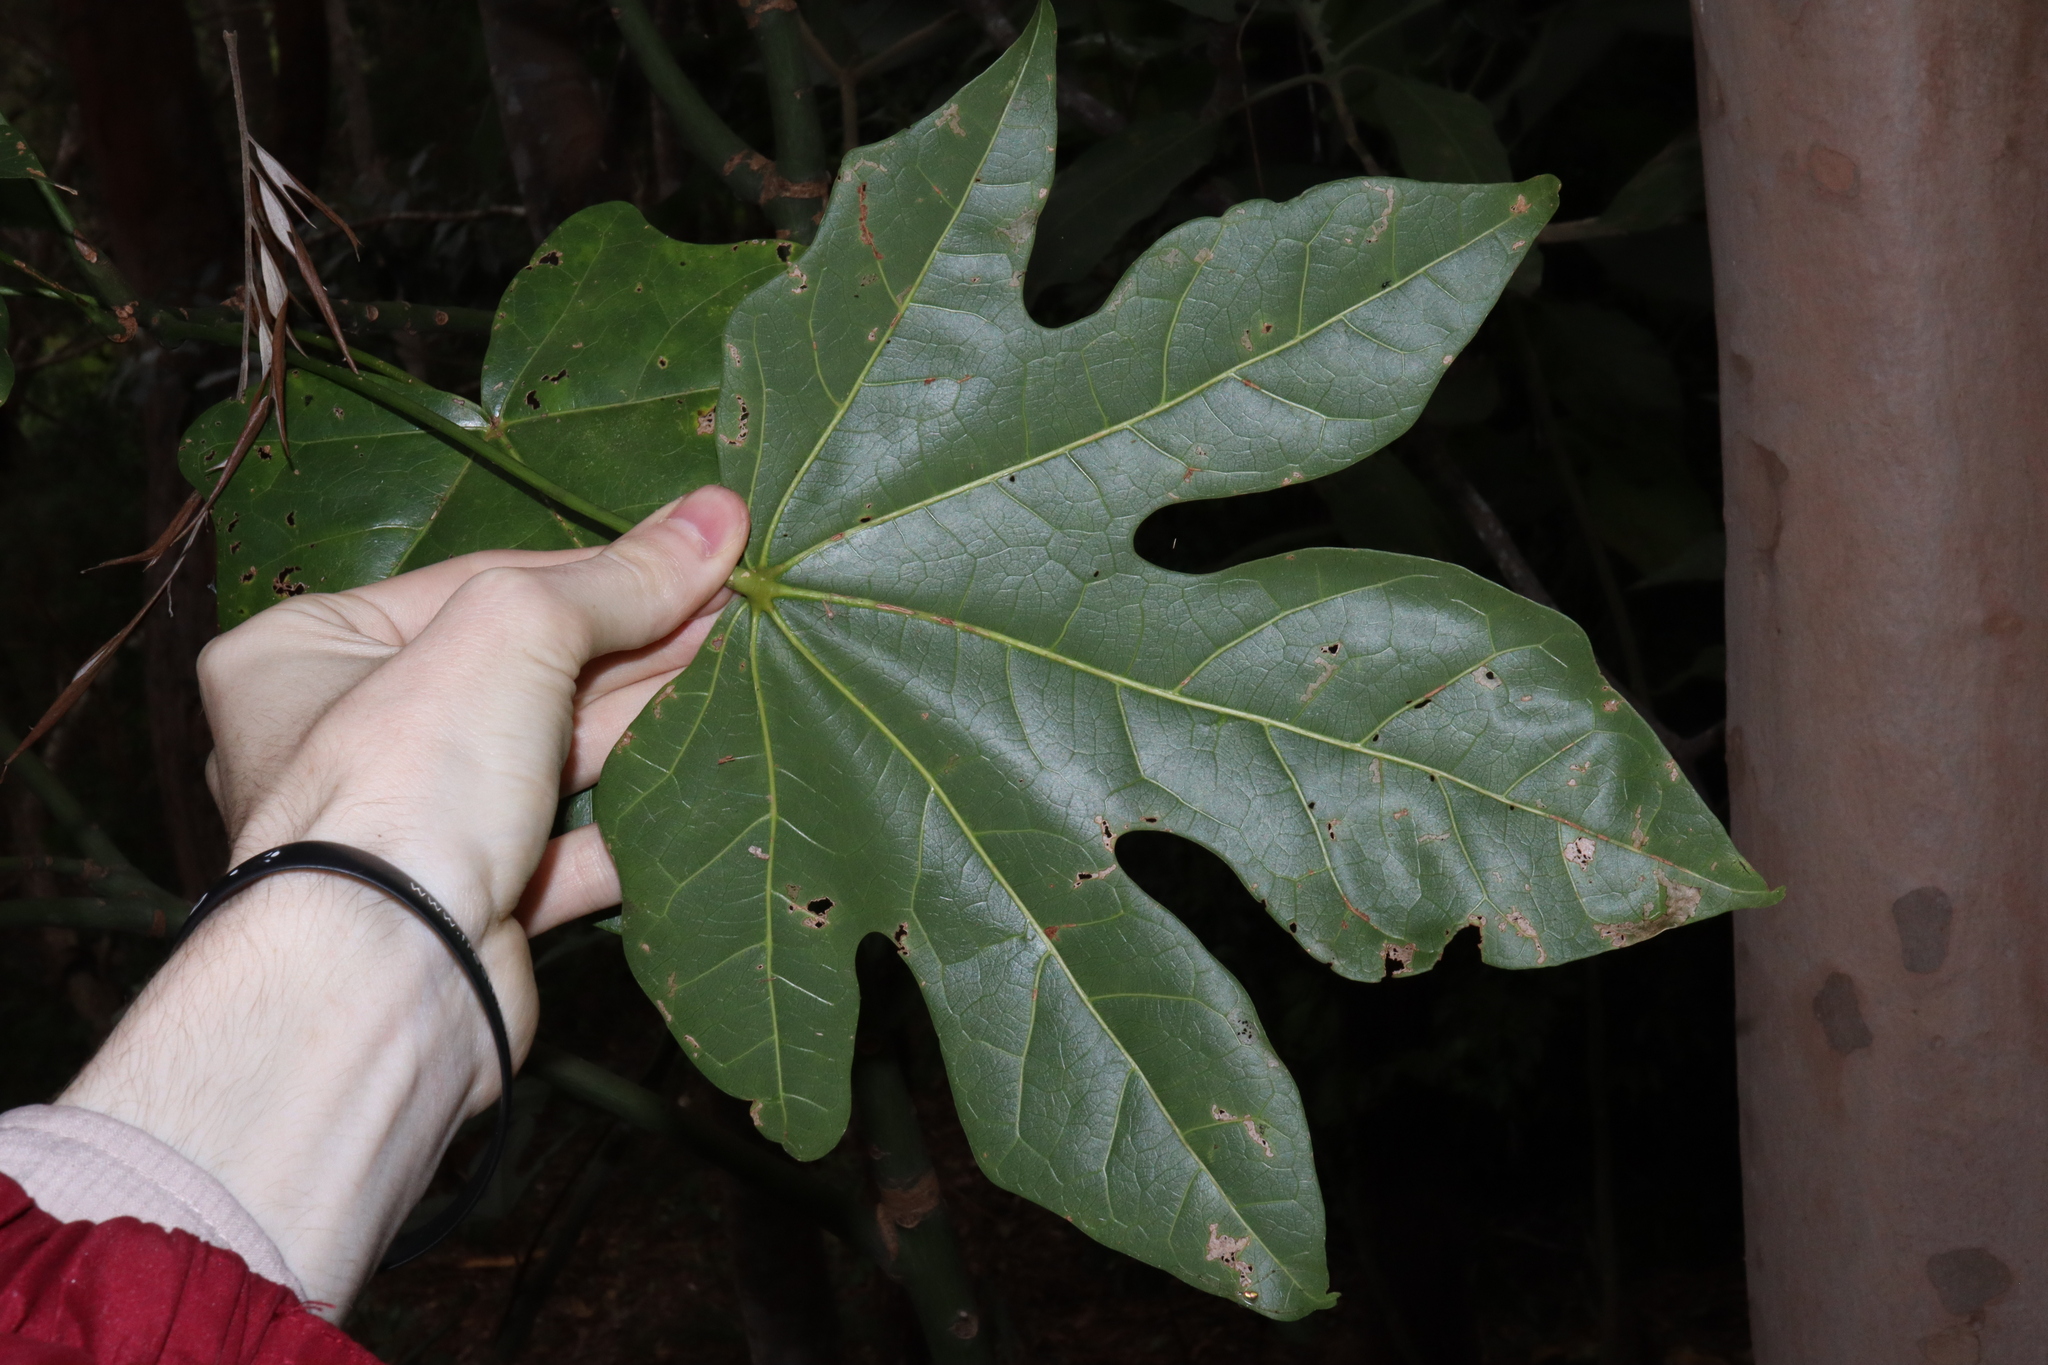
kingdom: Plantae
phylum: Tracheophyta
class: Magnoliopsida
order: Malvales
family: Malvaceae
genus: Brachychiton
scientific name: Brachychiton acerifolius
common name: Illawarra flame tree
